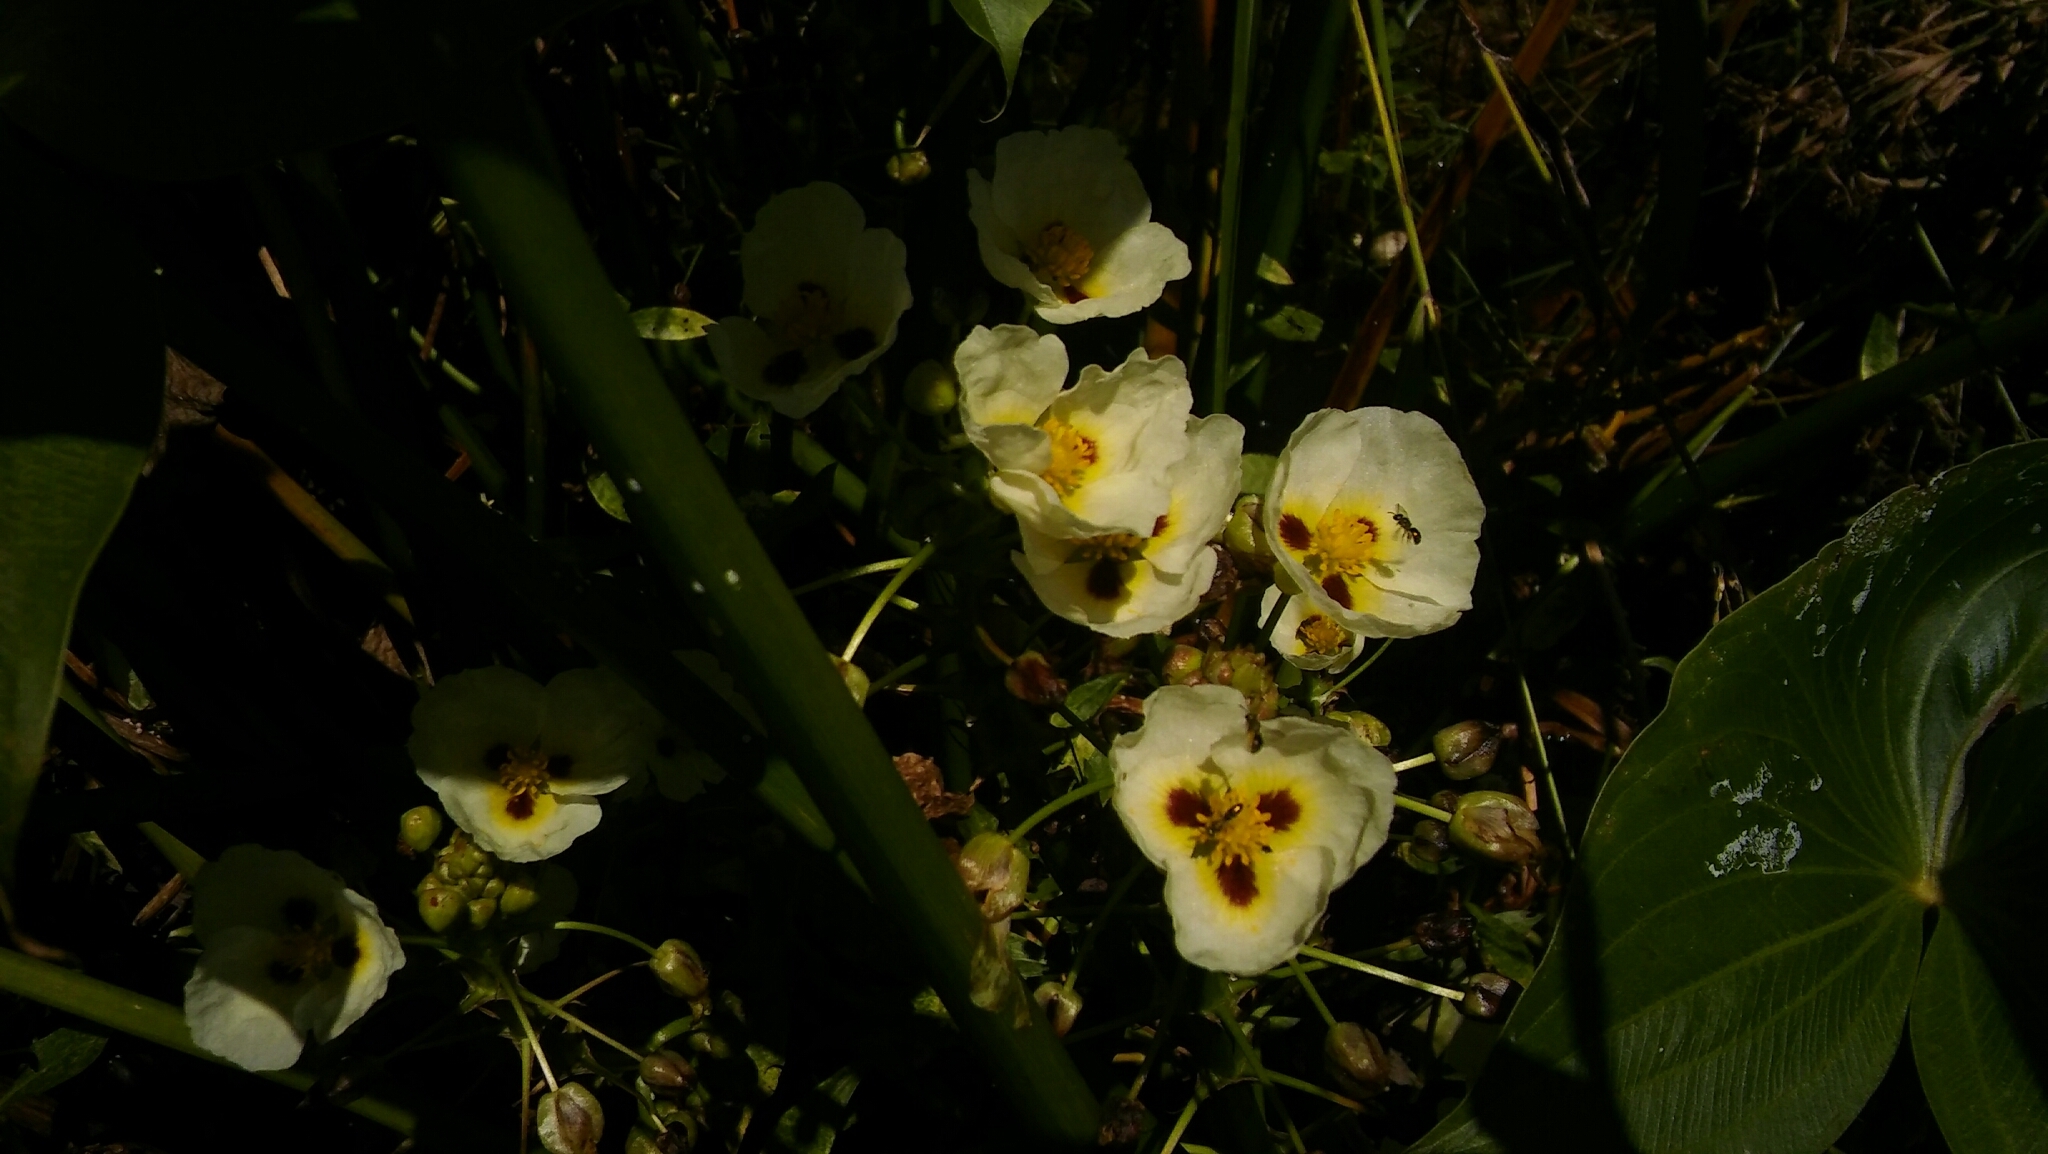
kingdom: Plantae
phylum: Tracheophyta
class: Liliopsida
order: Alismatales
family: Alismataceae
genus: Sagittaria
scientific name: Sagittaria montevidensis
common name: Giant arrowhead
